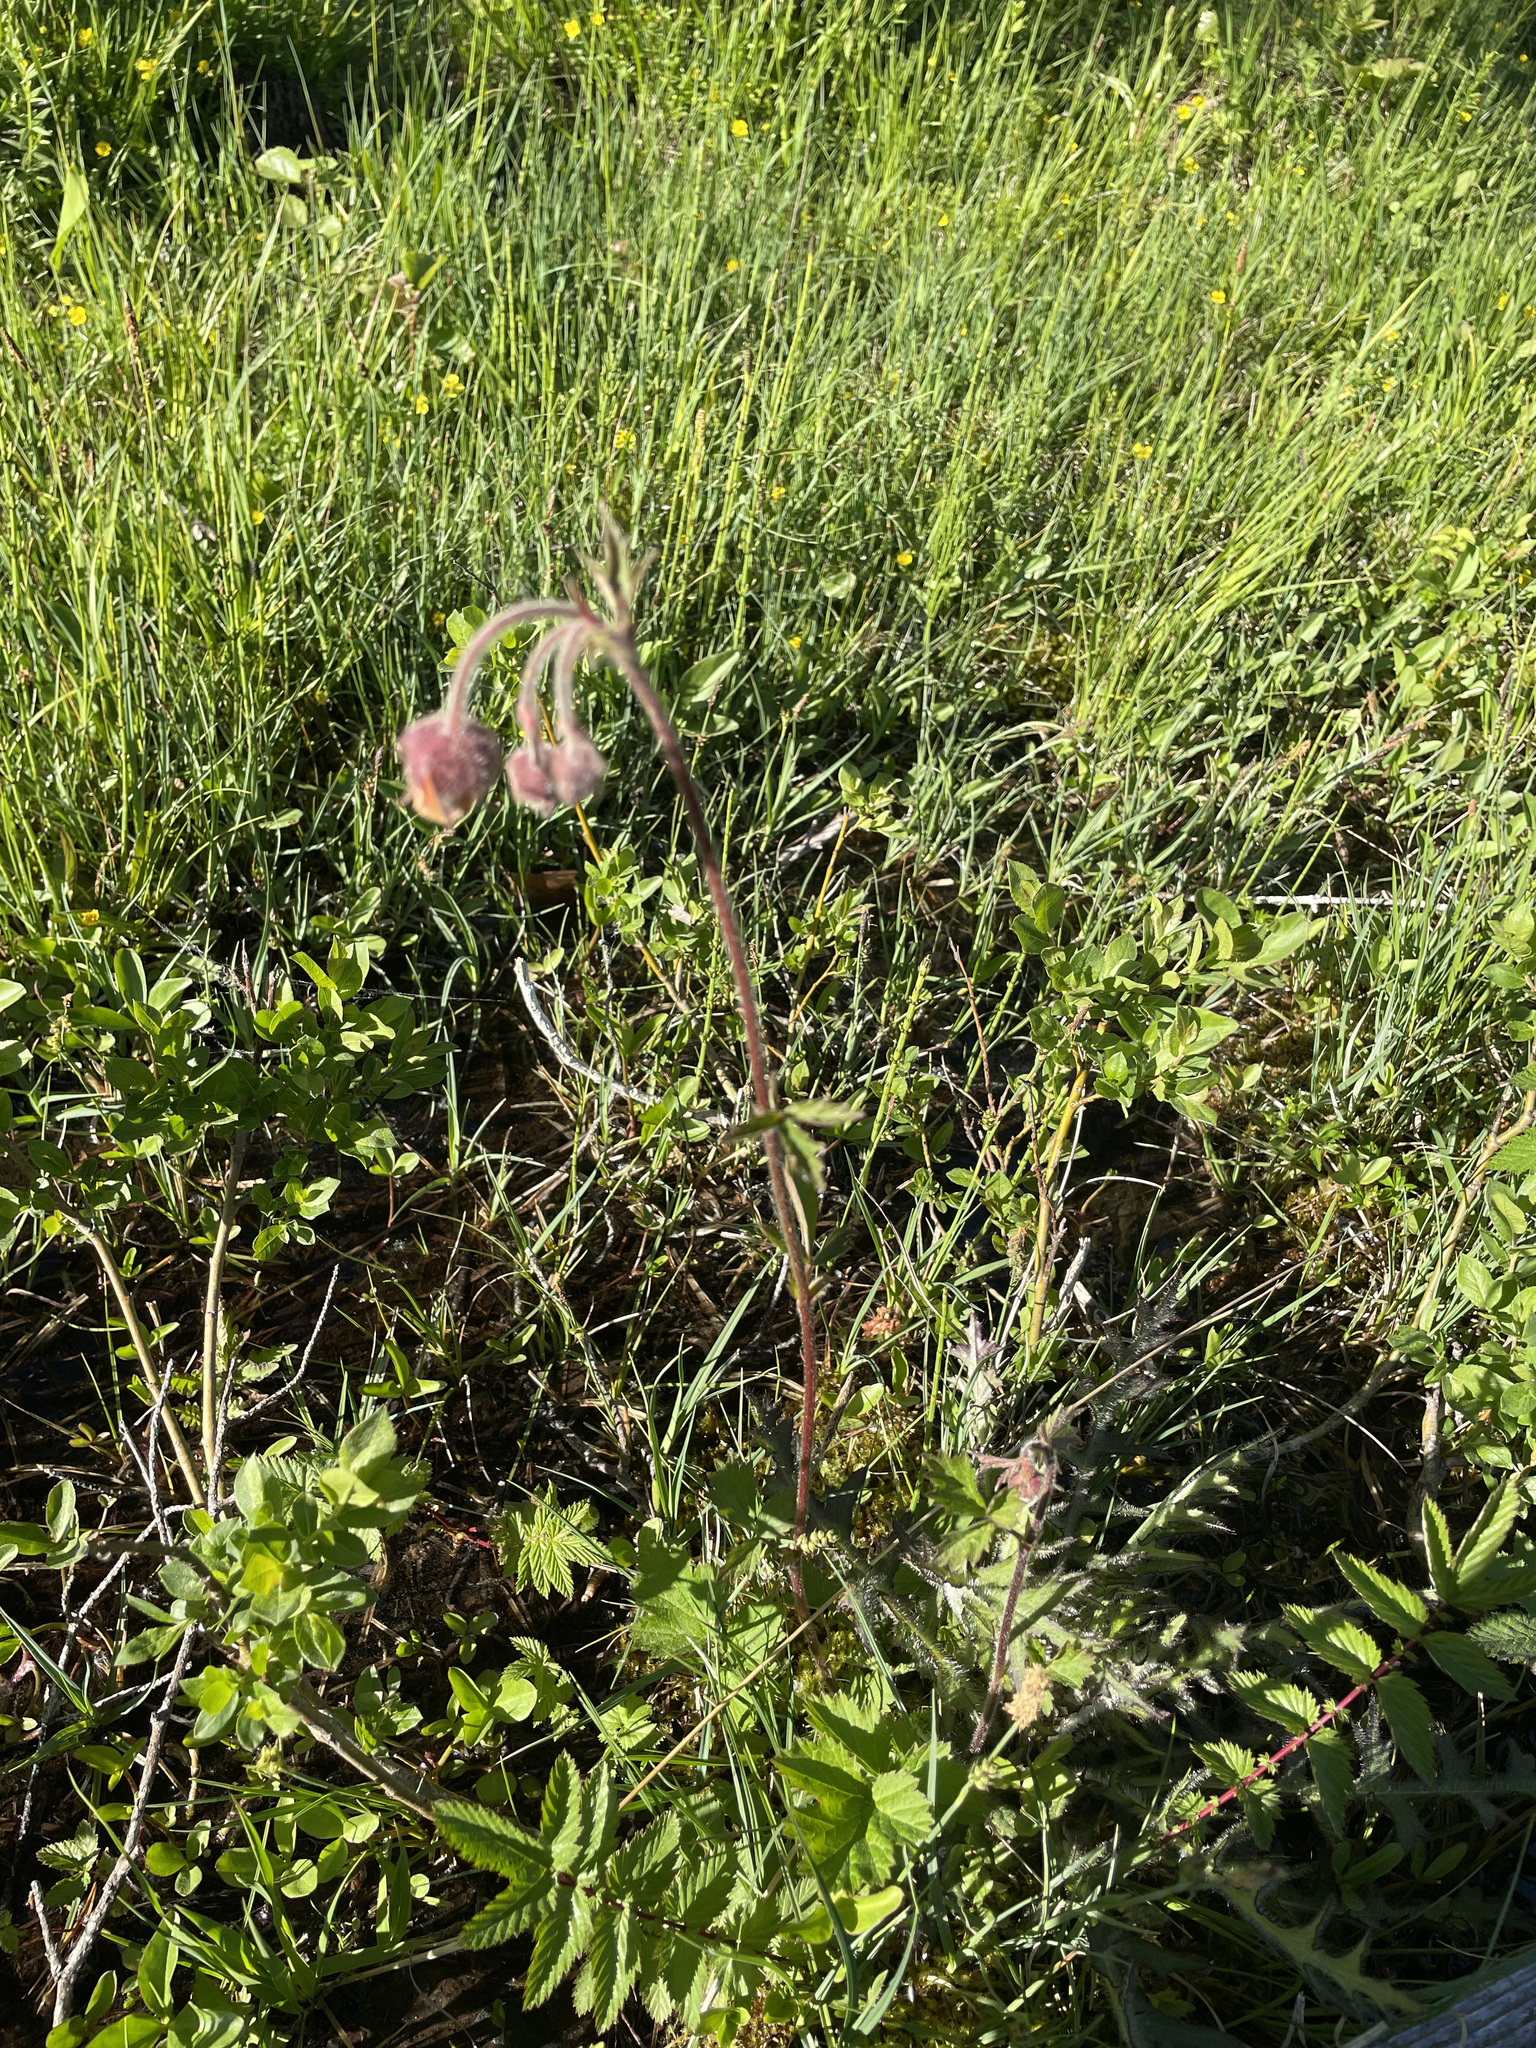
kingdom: Plantae
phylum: Tracheophyta
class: Magnoliopsida
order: Rosales
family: Rosaceae
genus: Geum
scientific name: Geum rivale
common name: Water avens
